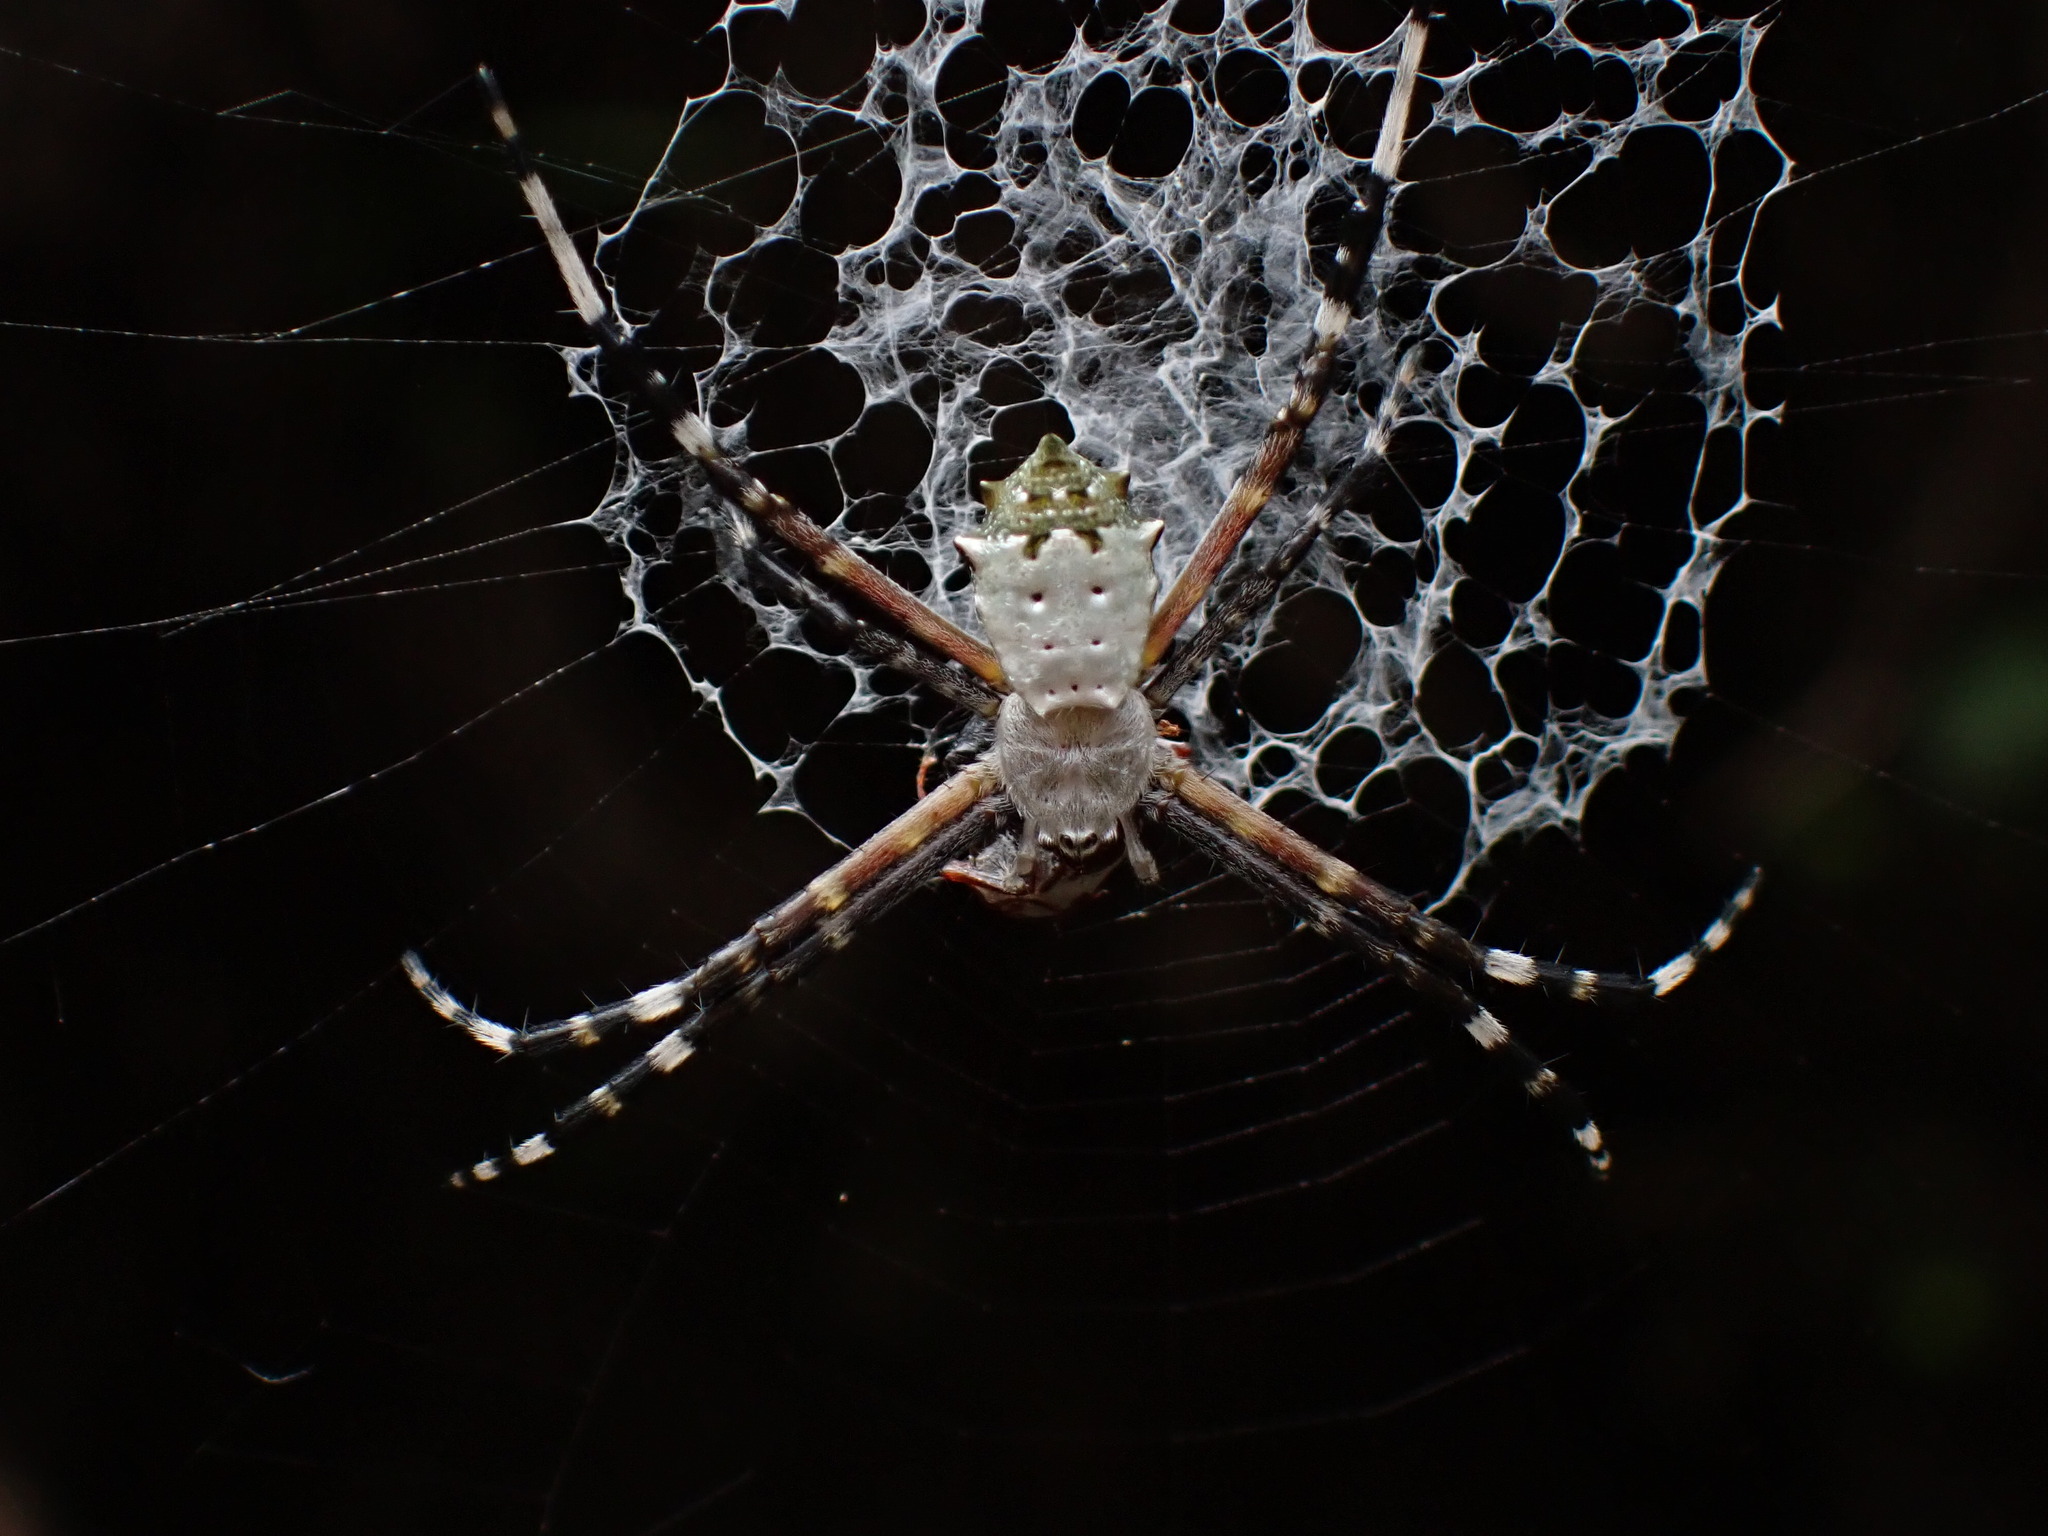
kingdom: Animalia
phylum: Arthropoda
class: Arachnida
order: Araneae
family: Araneidae
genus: Argiope
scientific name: Argiope submaronica
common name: Orb weavers
